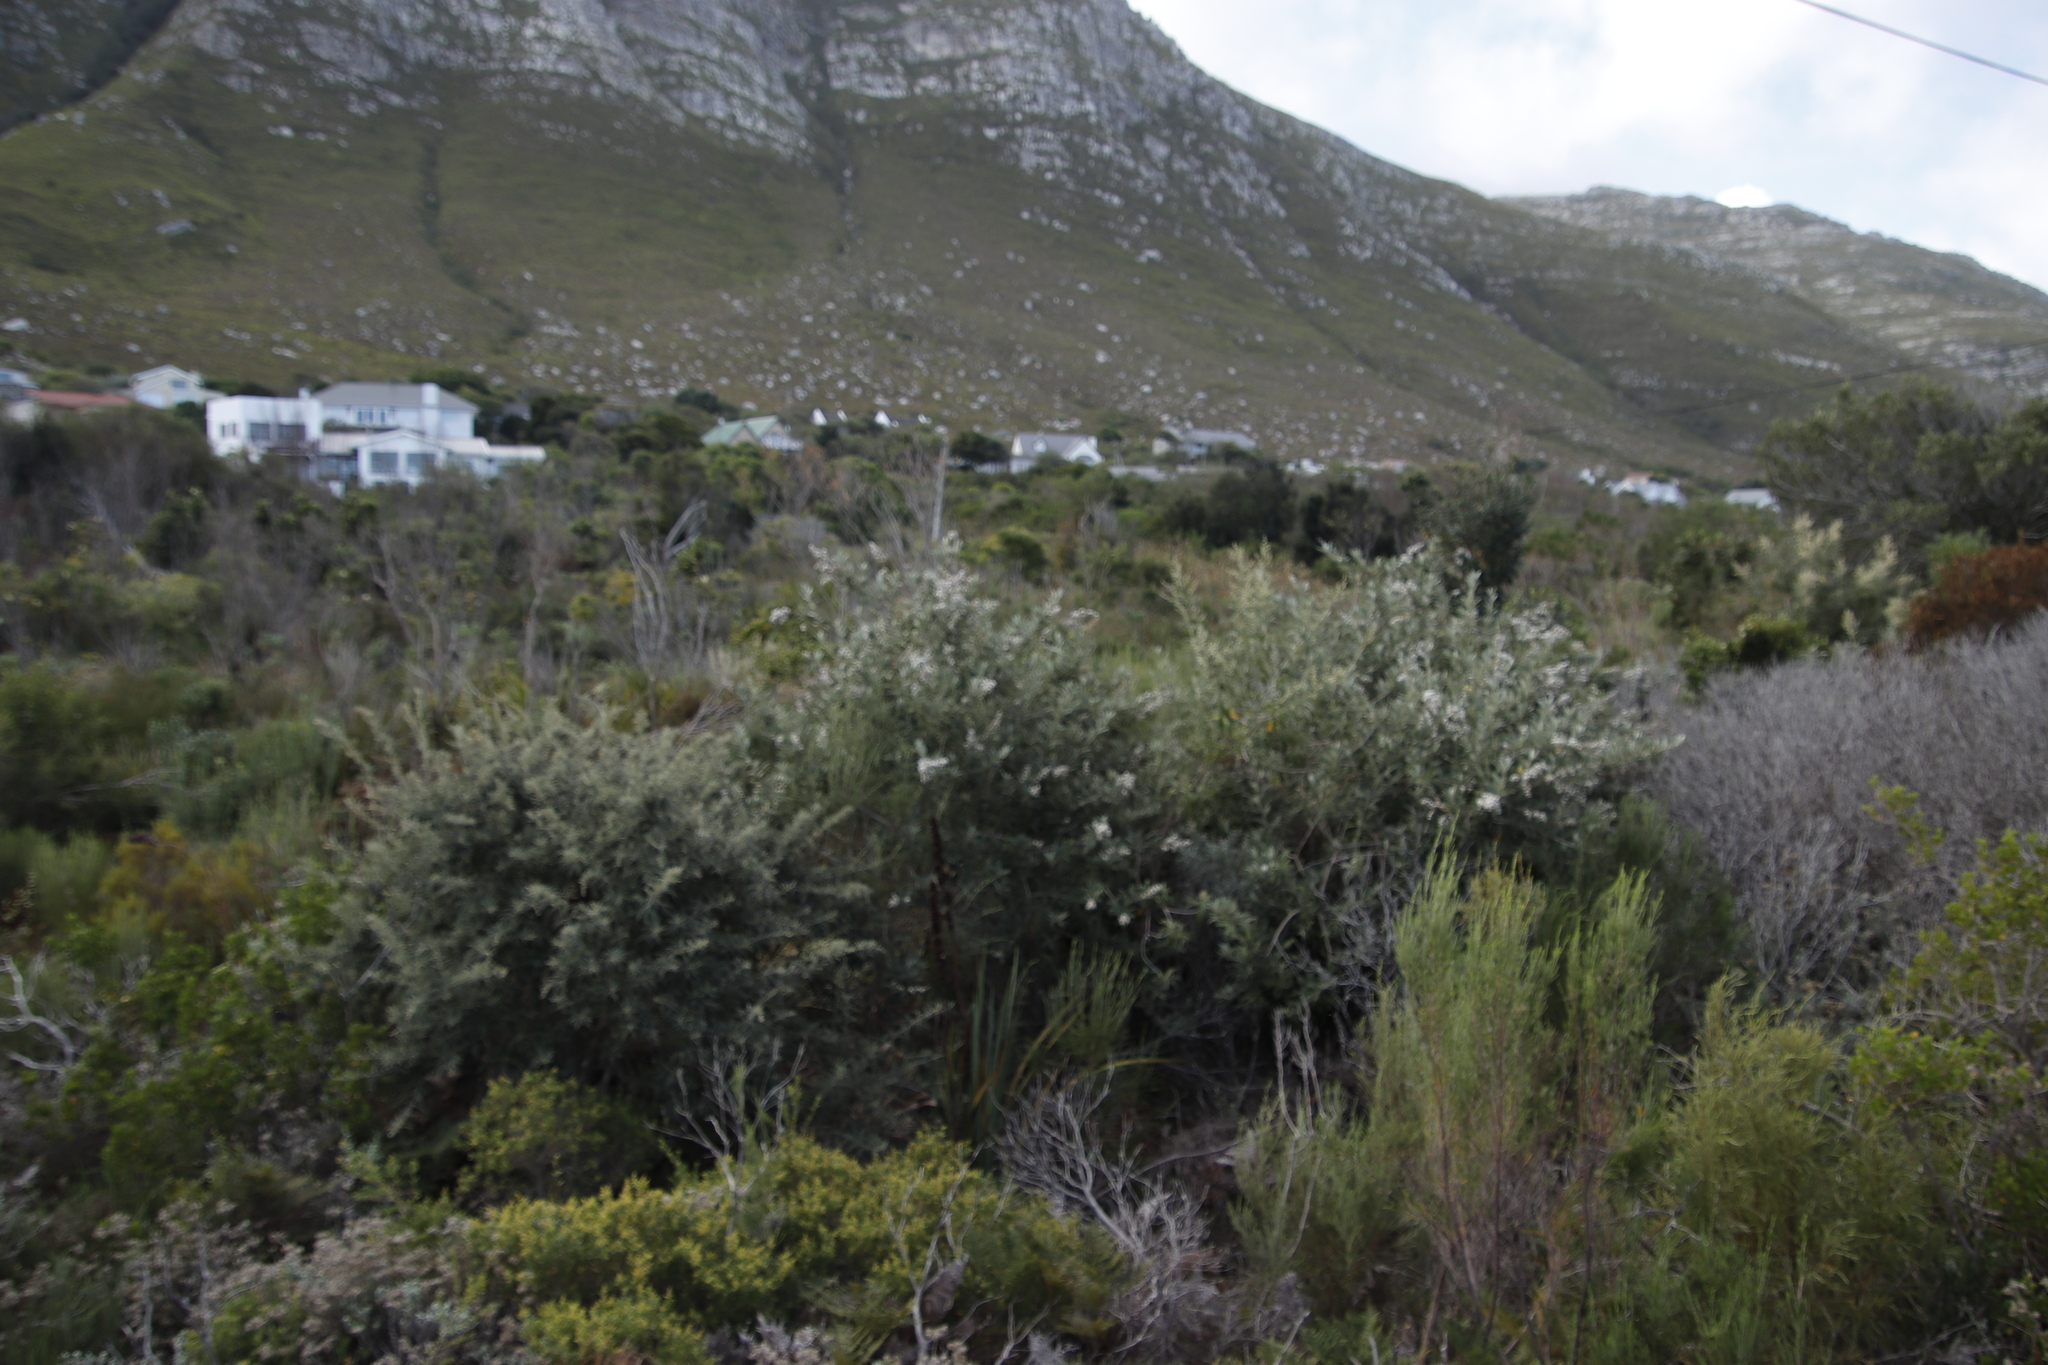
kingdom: Plantae
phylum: Tracheophyta
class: Magnoliopsida
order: Asterales
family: Asteraceae
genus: Tarchonanthus
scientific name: Tarchonanthus littoralis
